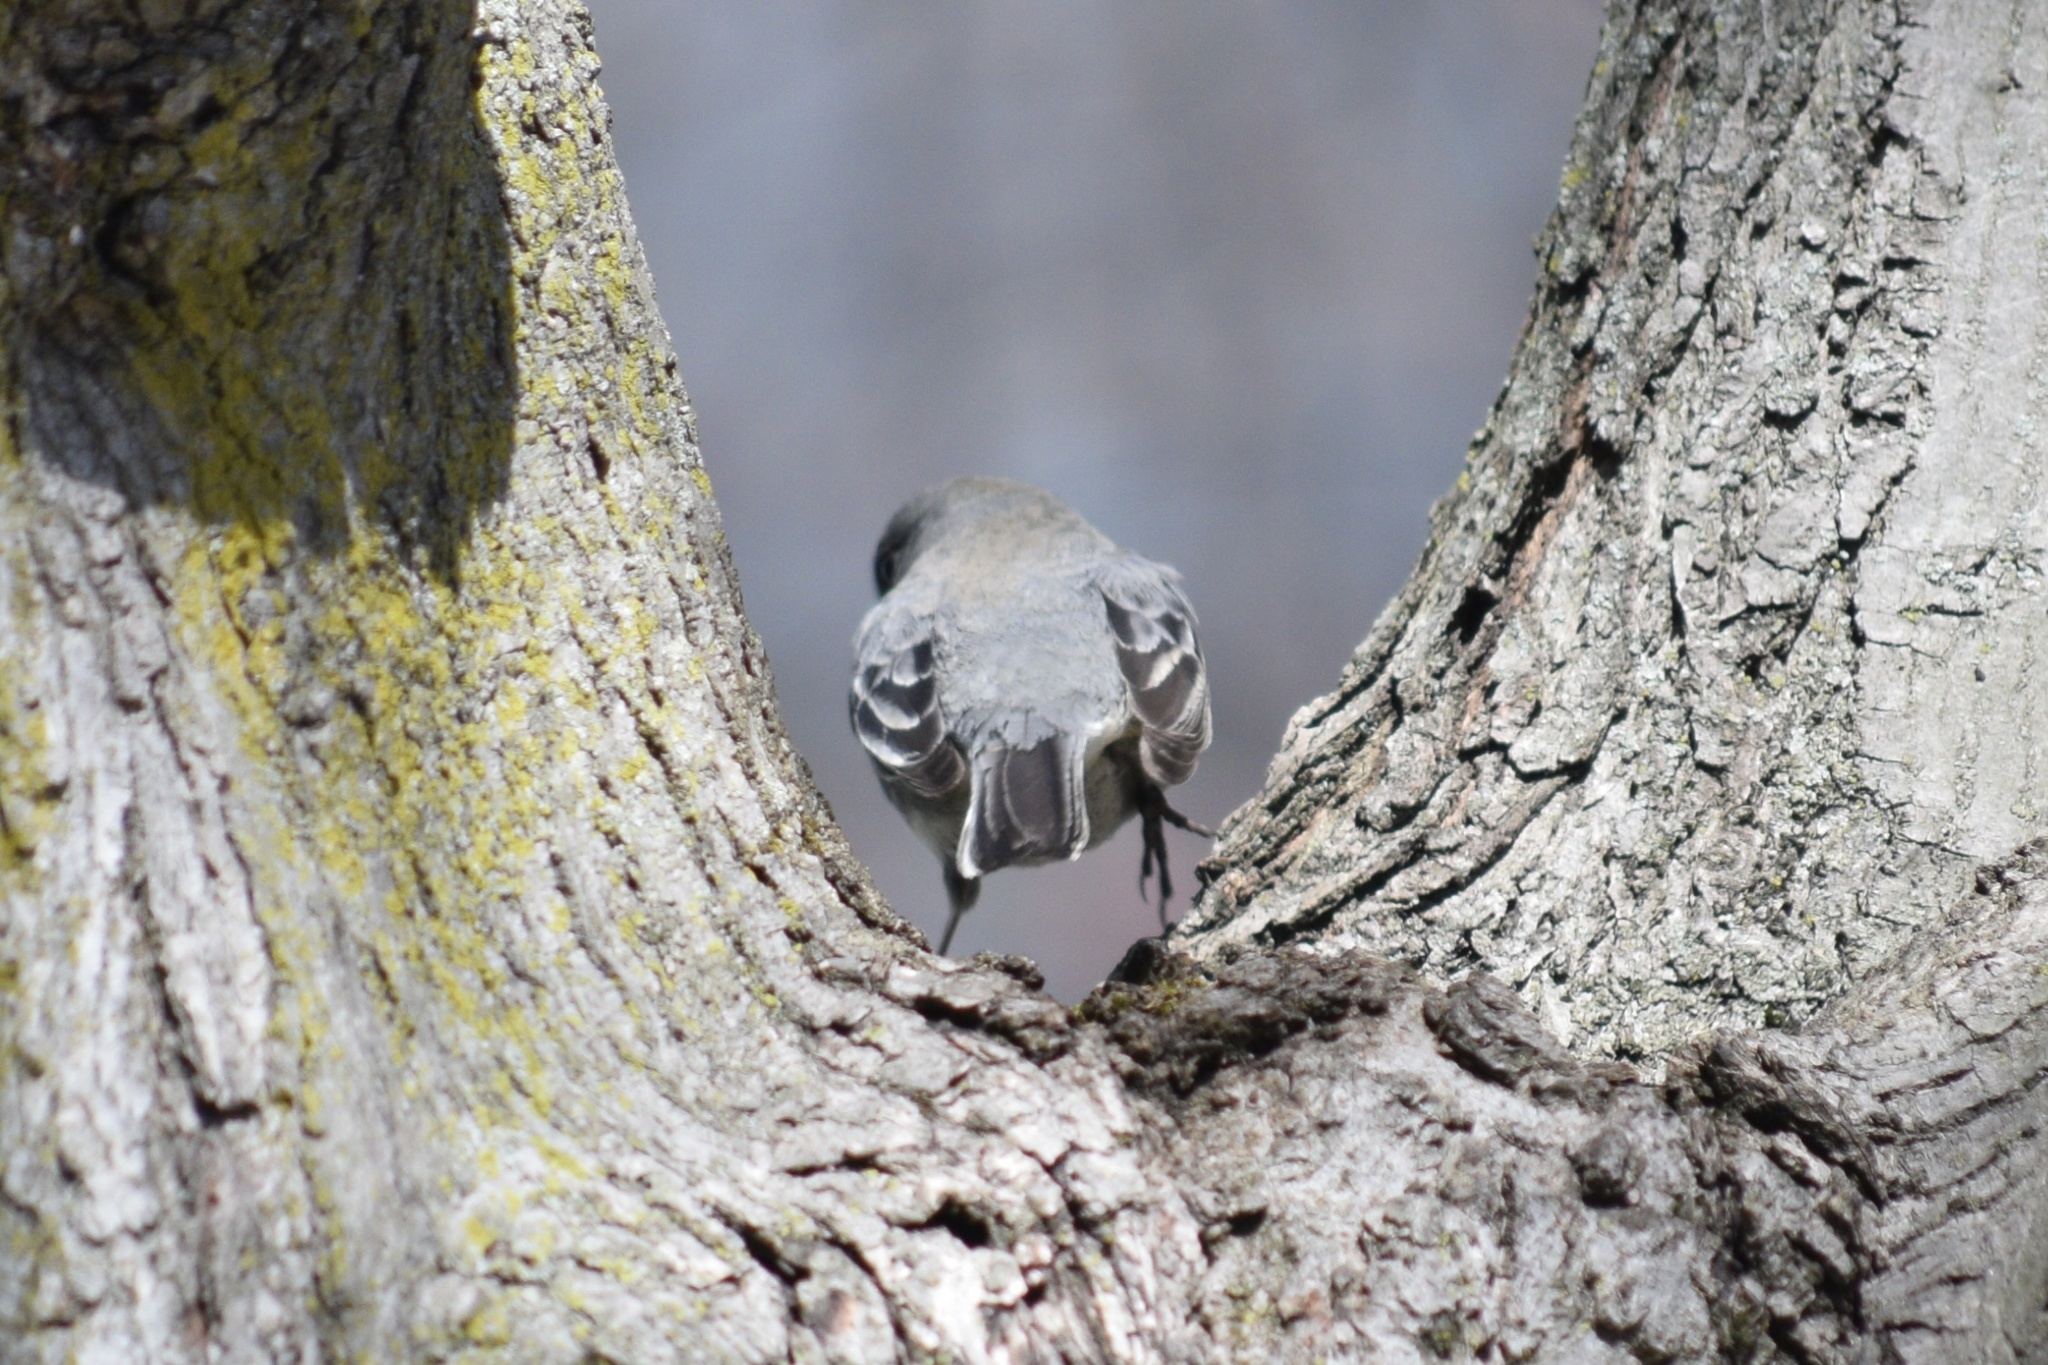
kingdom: Animalia
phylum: Chordata
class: Aves
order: Passeriformes
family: Mimidae
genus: Mimus
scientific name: Mimus polyglottos
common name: Northern mockingbird
